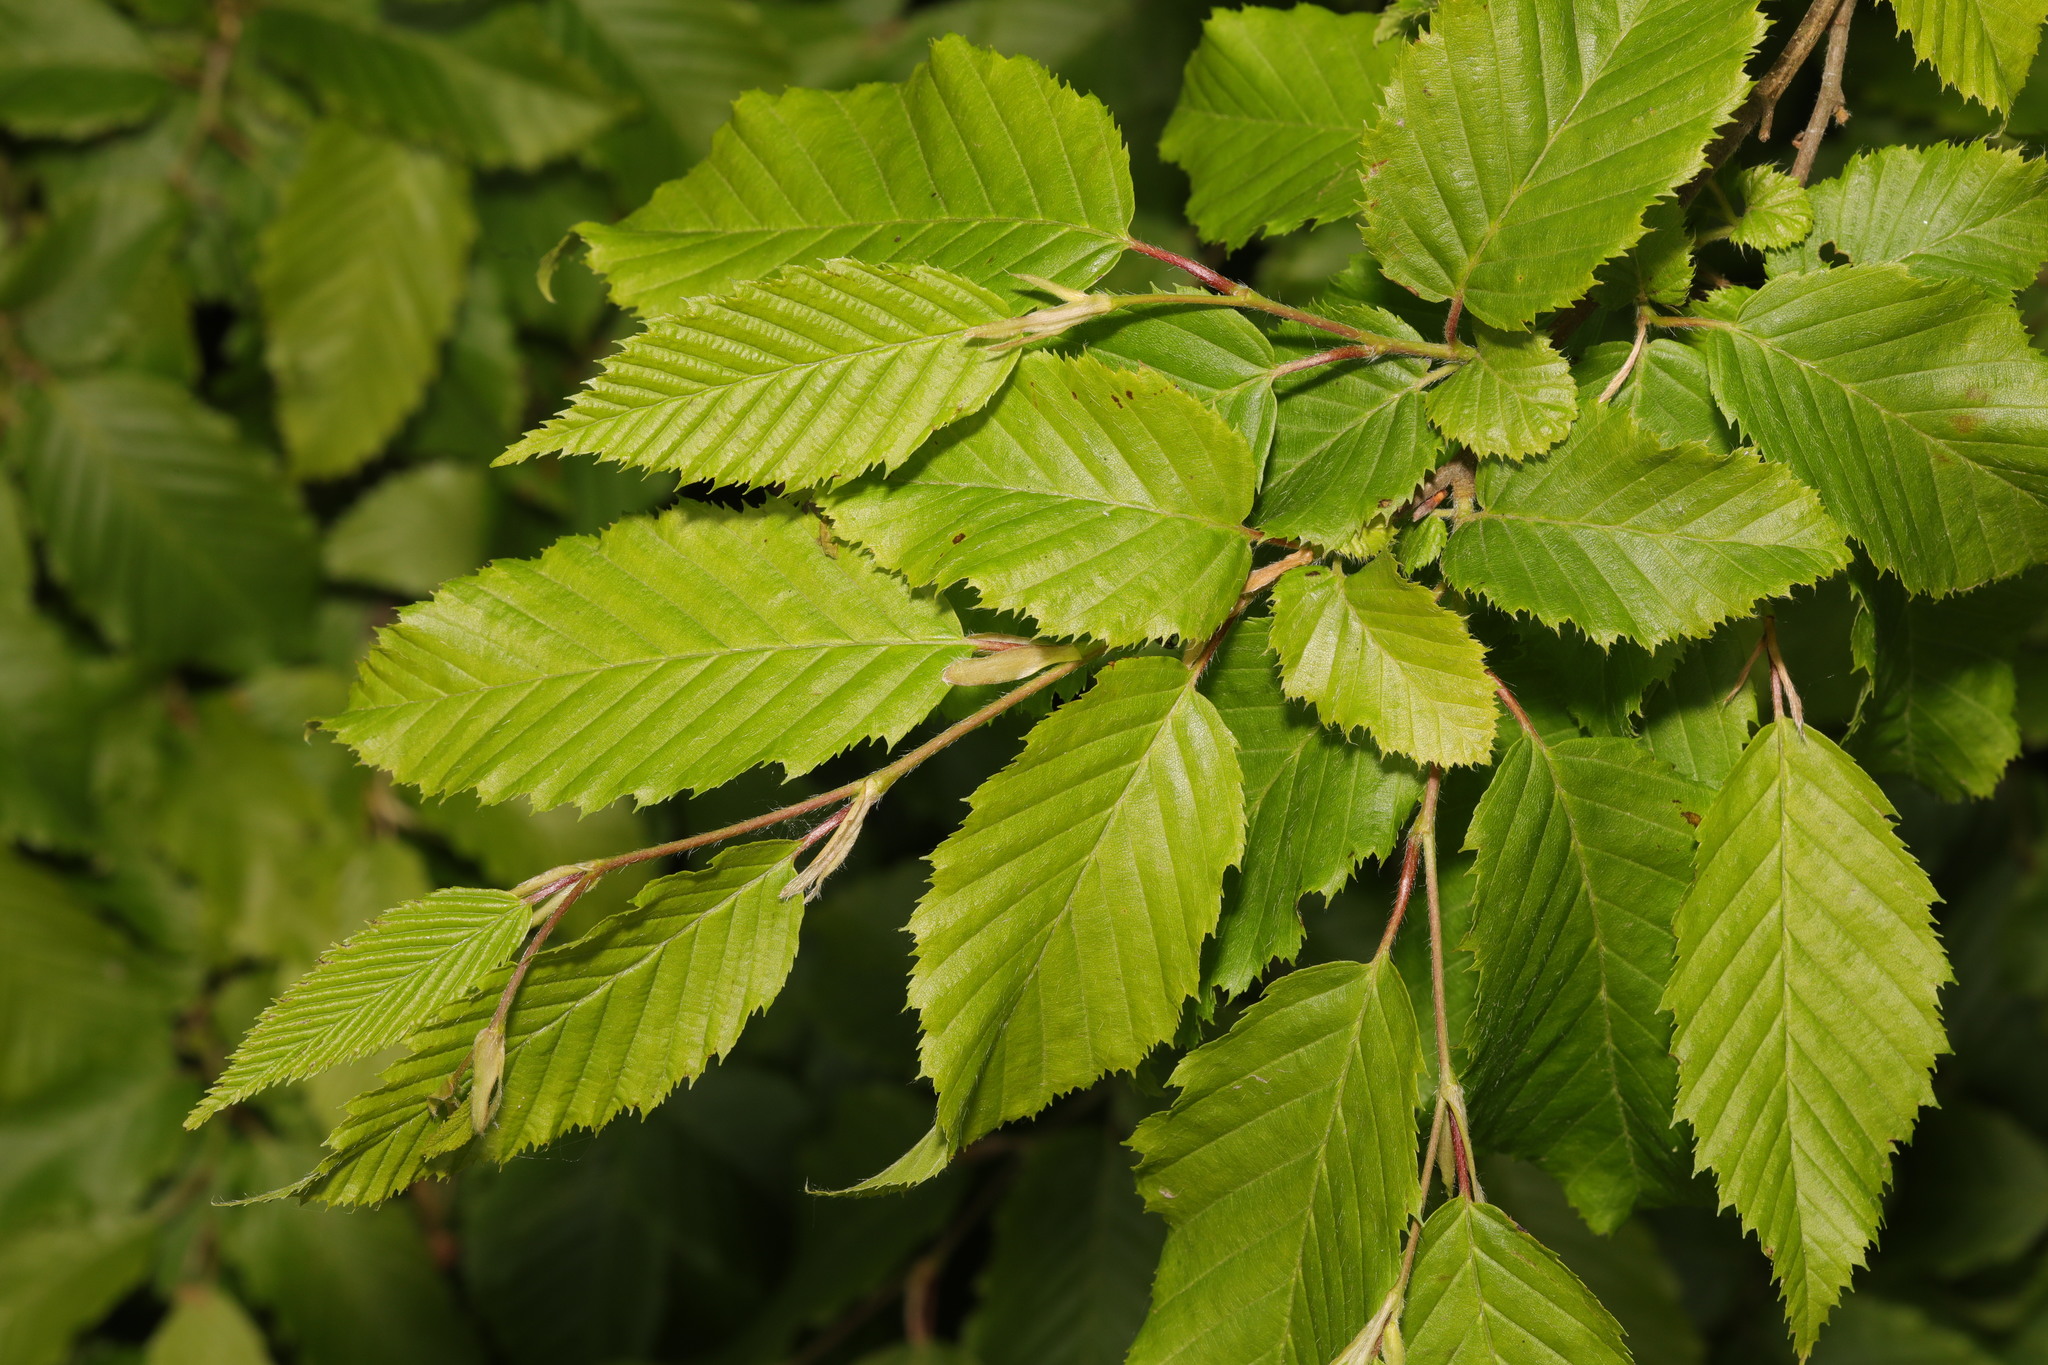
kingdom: Plantae
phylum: Tracheophyta
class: Magnoliopsida
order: Fagales
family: Betulaceae
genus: Carpinus
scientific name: Carpinus betulus
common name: Hornbeam
